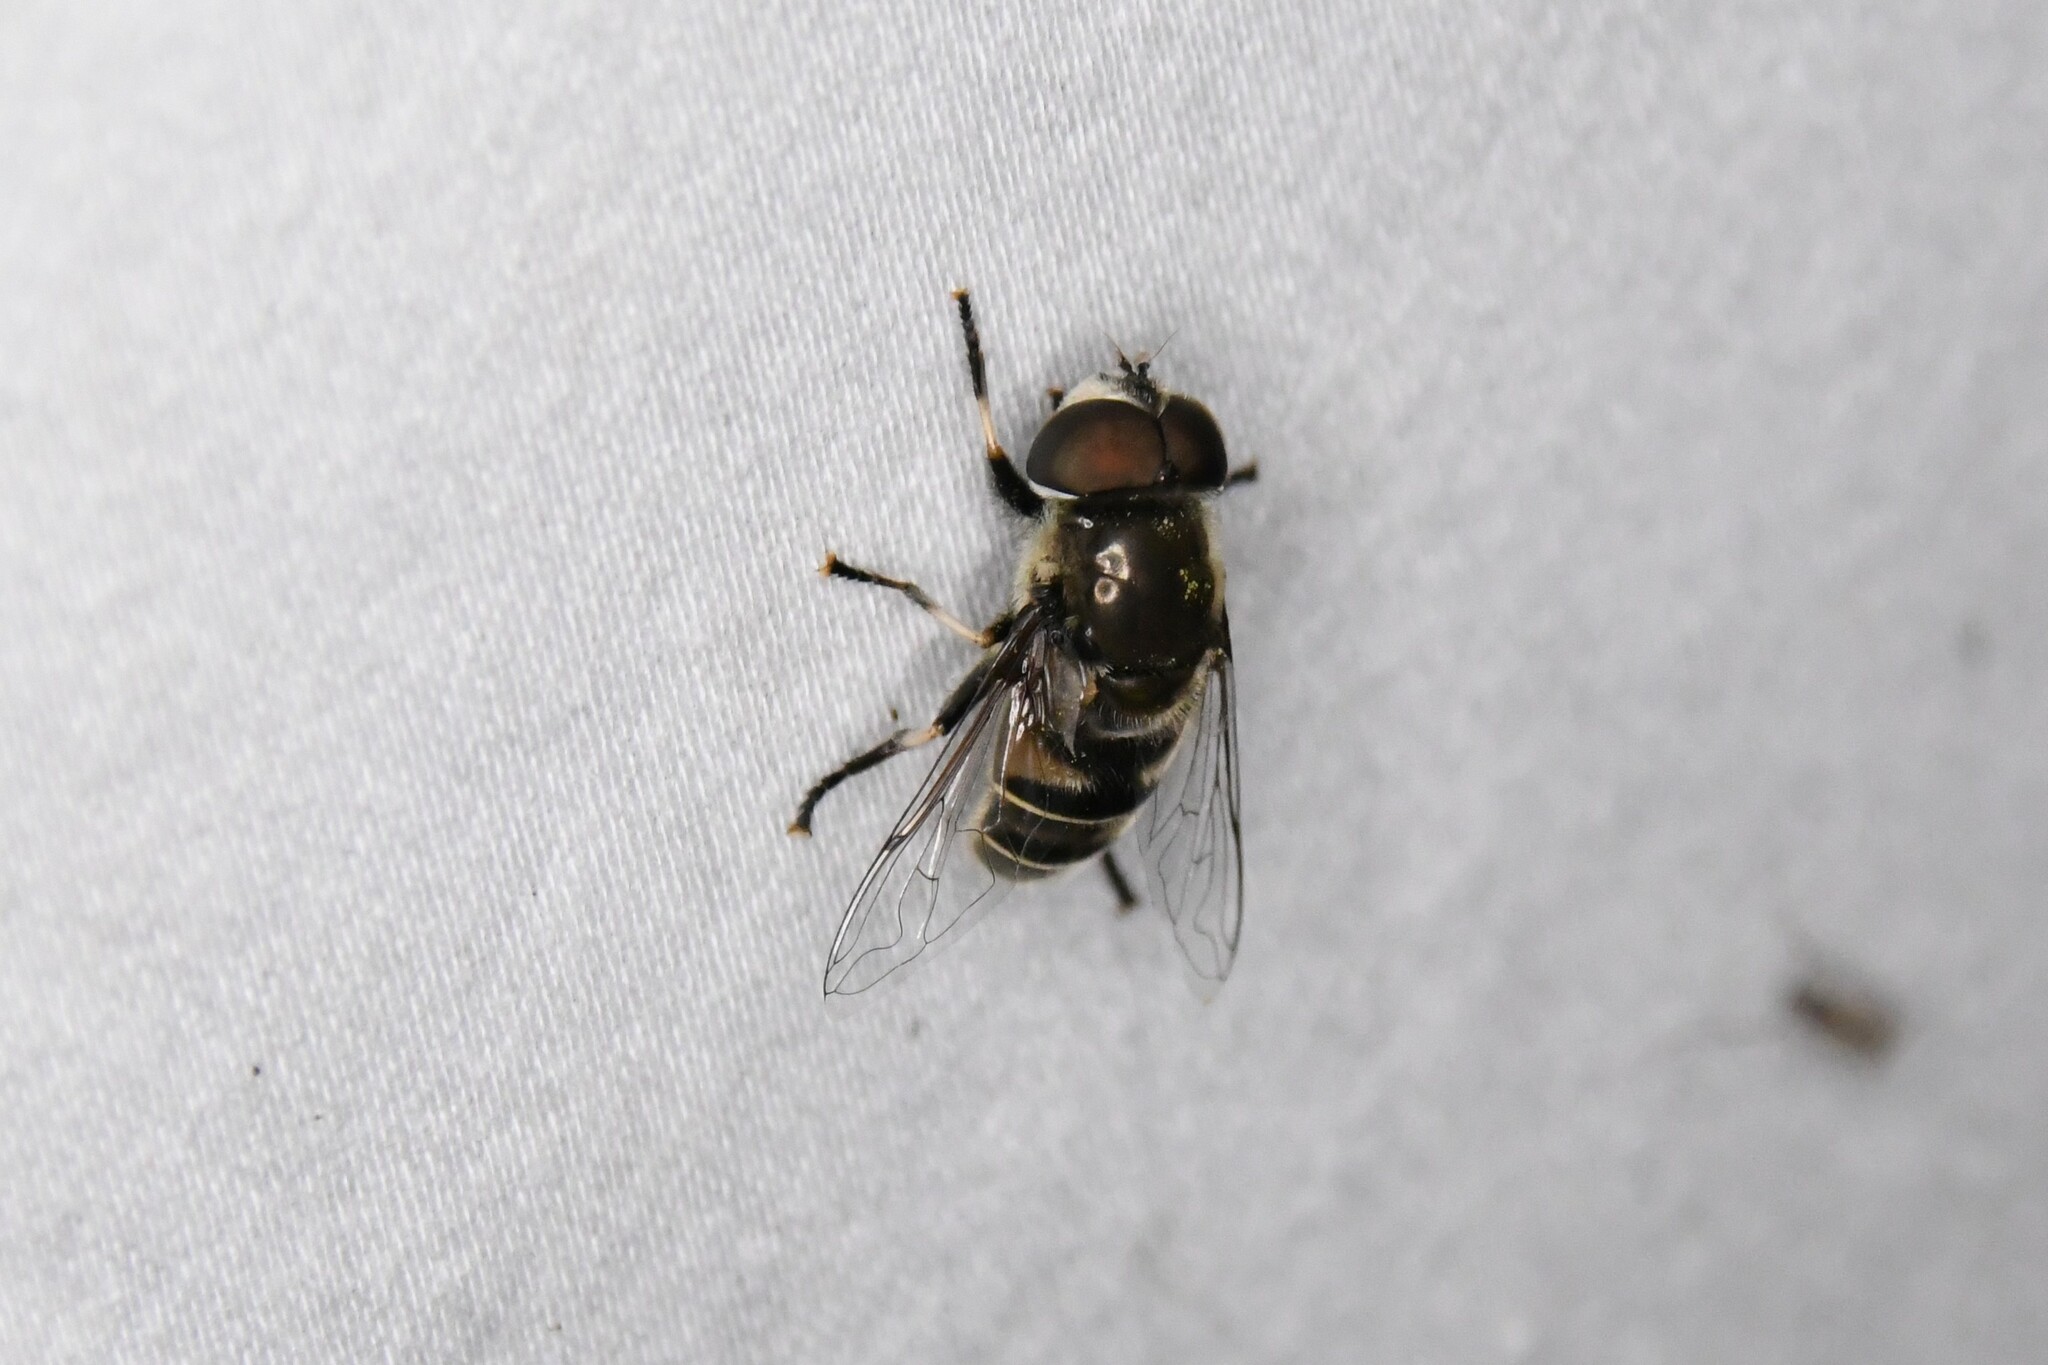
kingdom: Animalia
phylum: Arthropoda
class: Insecta
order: Diptera
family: Syrphidae
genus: Eristalis
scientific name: Eristalis dimidiata
